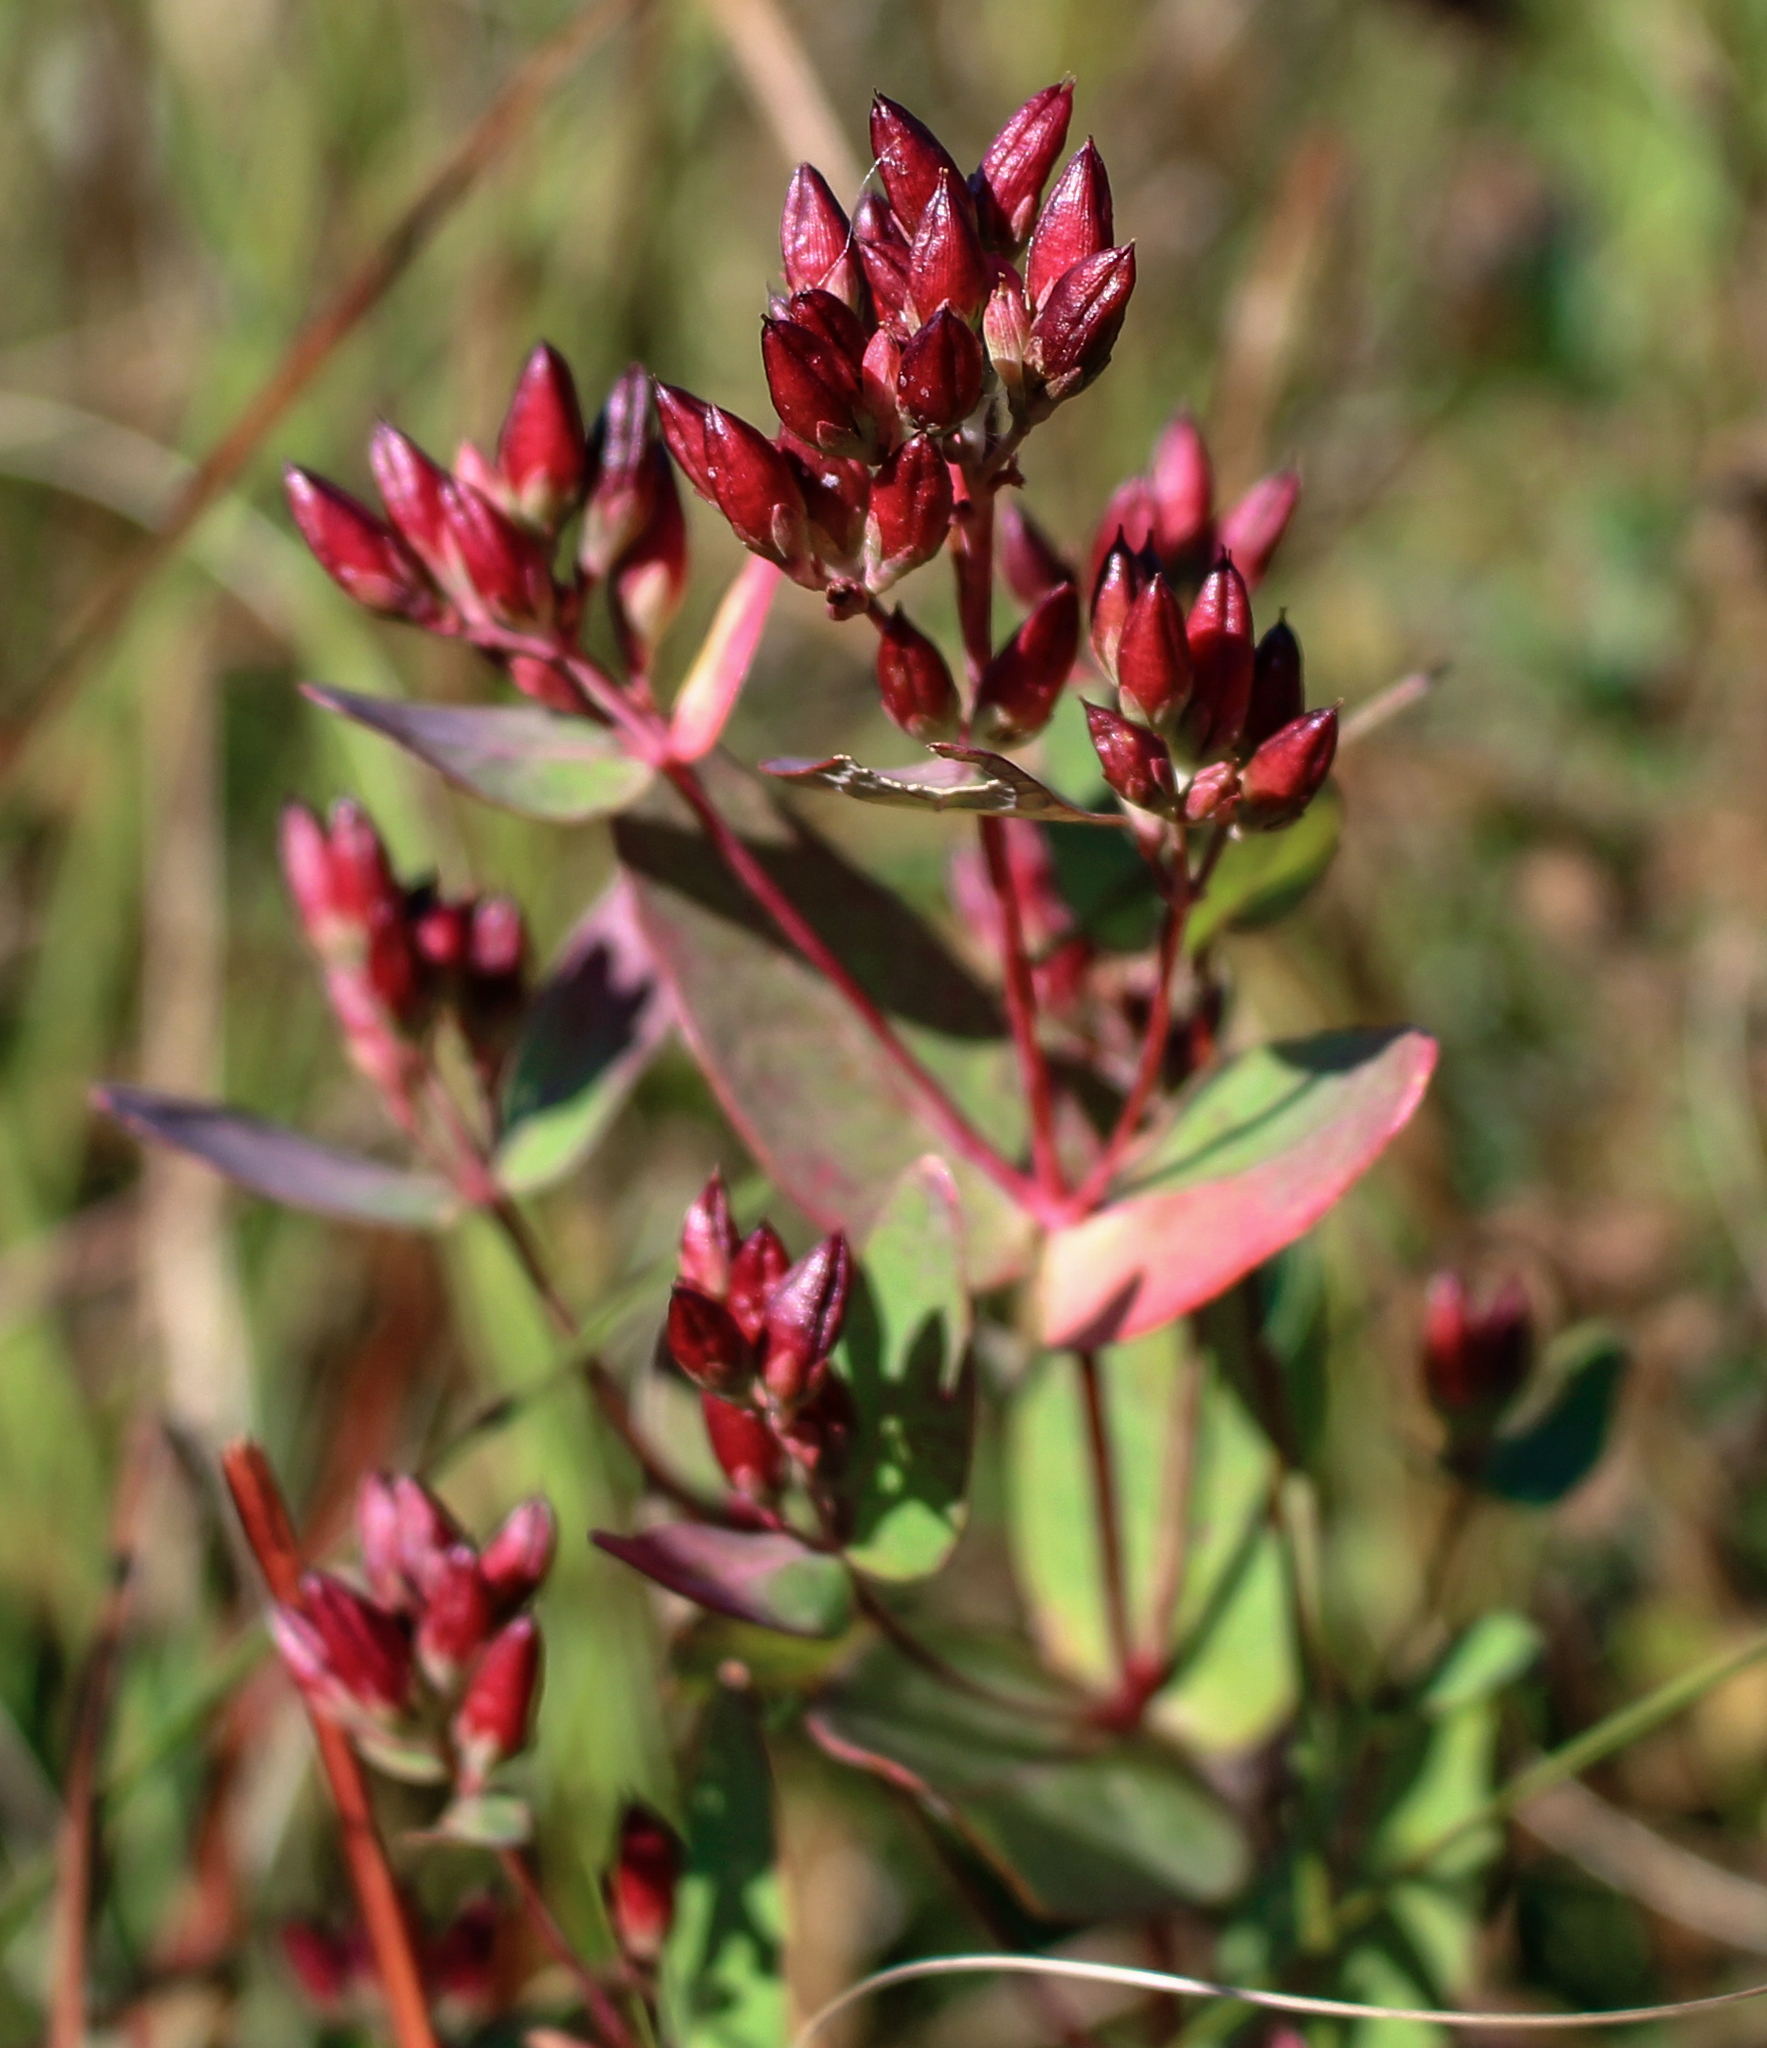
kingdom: Plantae
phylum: Tracheophyta
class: Magnoliopsida
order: Malpighiales
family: Hypericaceae
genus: Triadenum
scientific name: Triadenum fraseri
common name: Fraser's marsh st. johnswort
